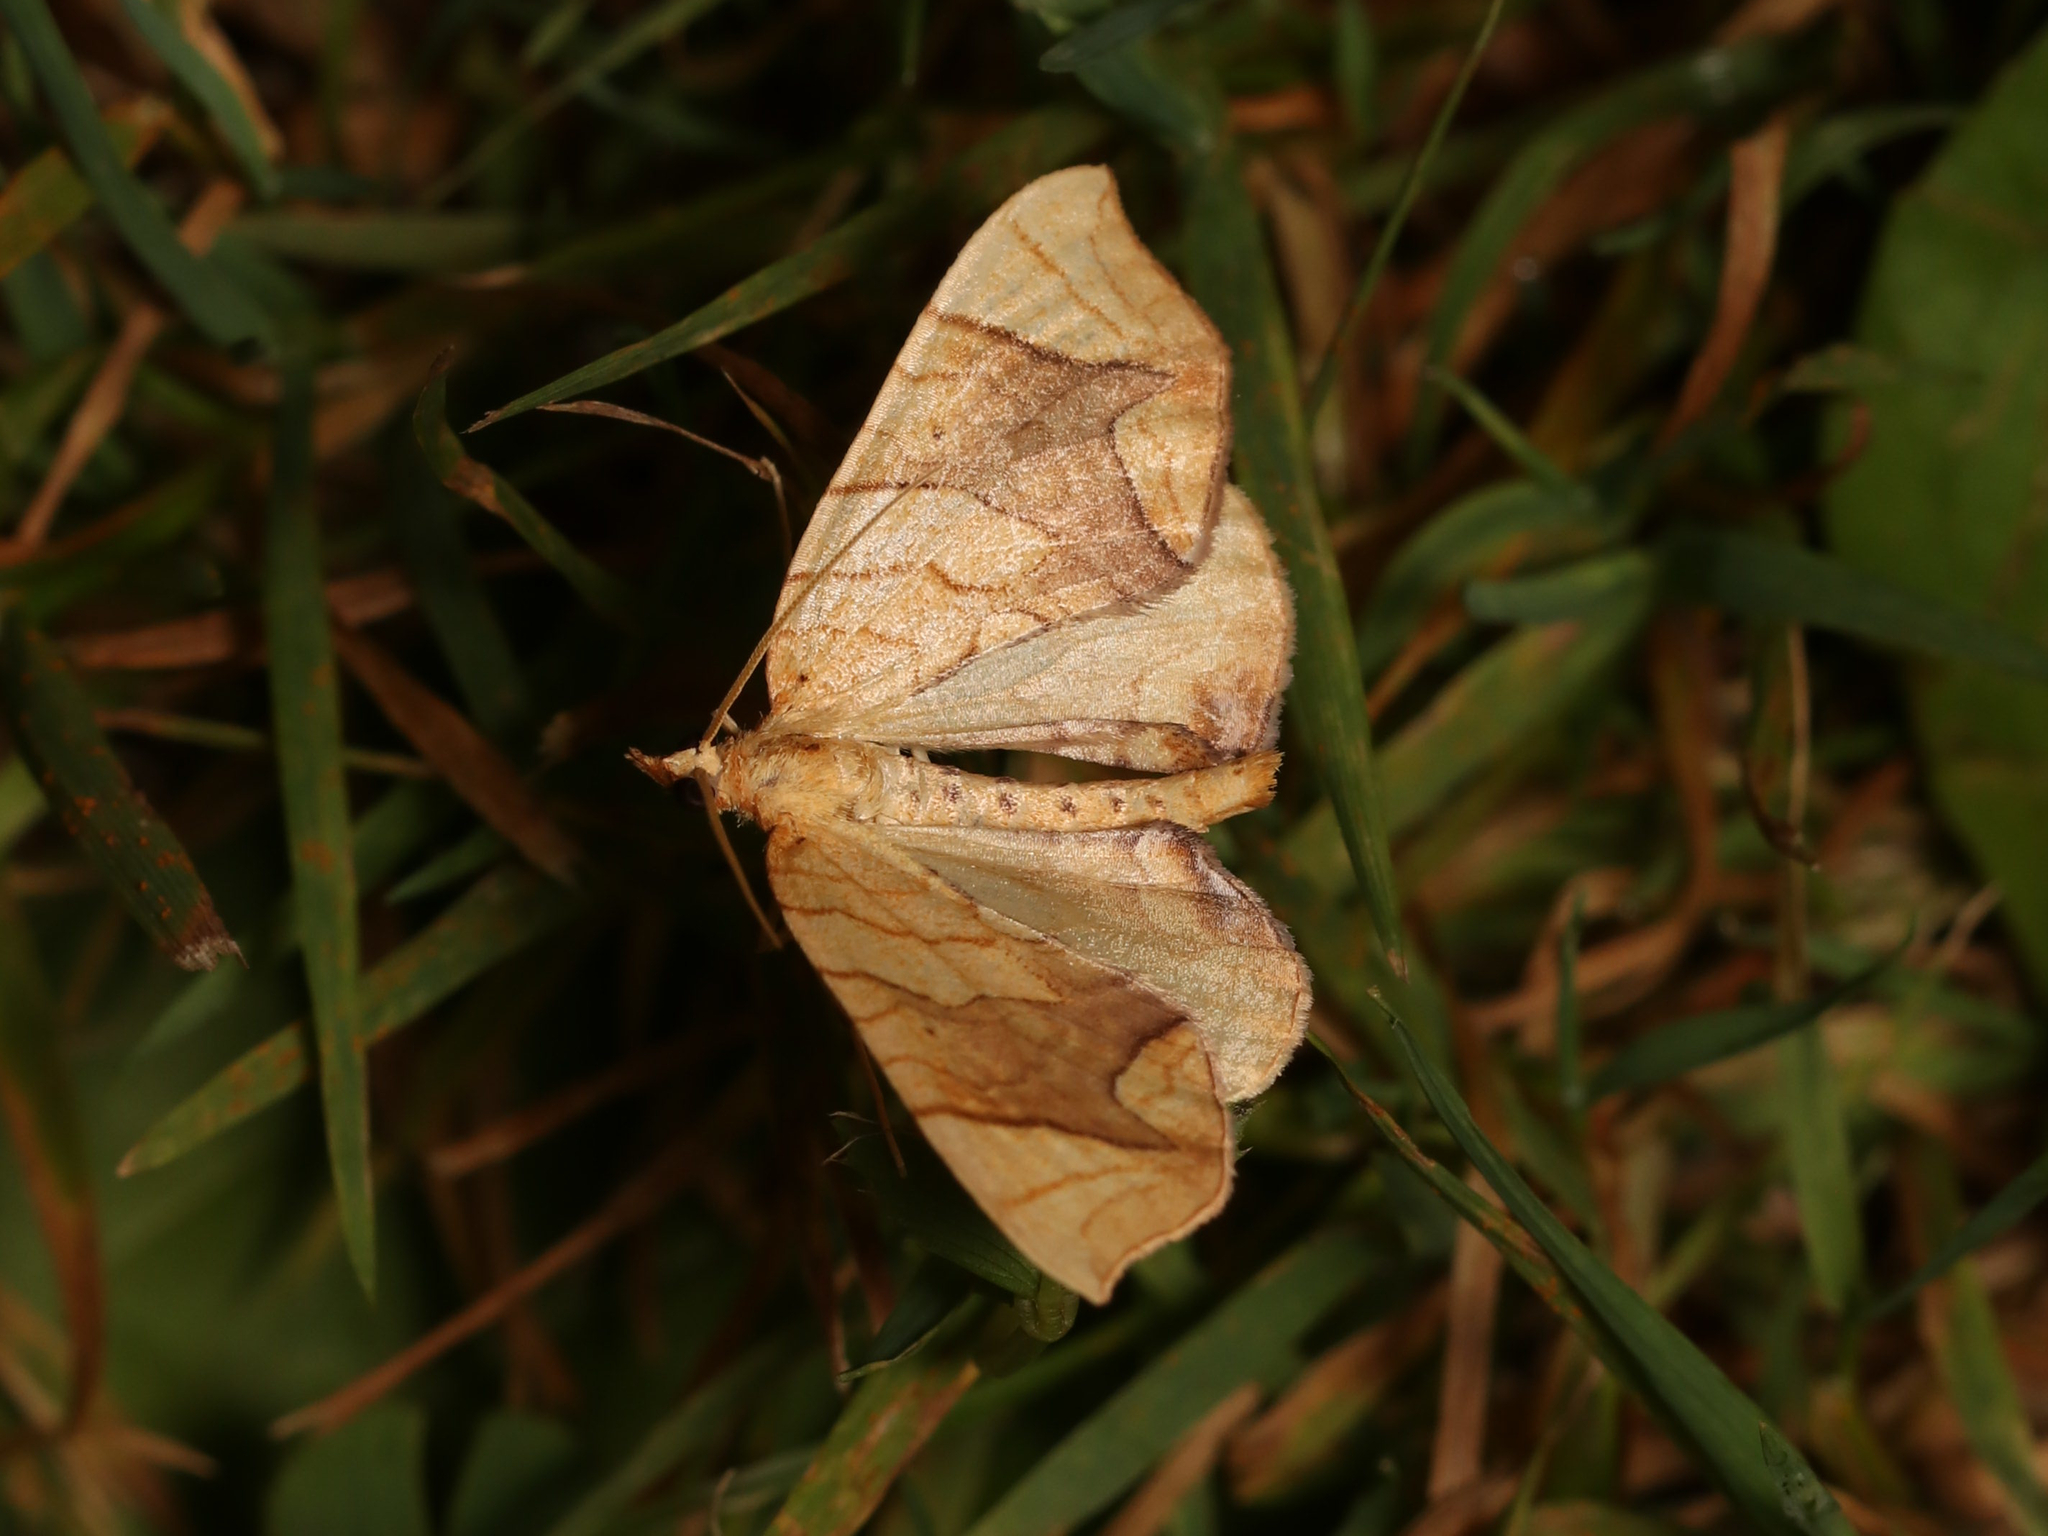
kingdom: Animalia
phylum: Arthropoda
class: Insecta
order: Lepidoptera
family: Geometridae
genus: Eulithis
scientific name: Eulithis diversilineata
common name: Grapevine looper
